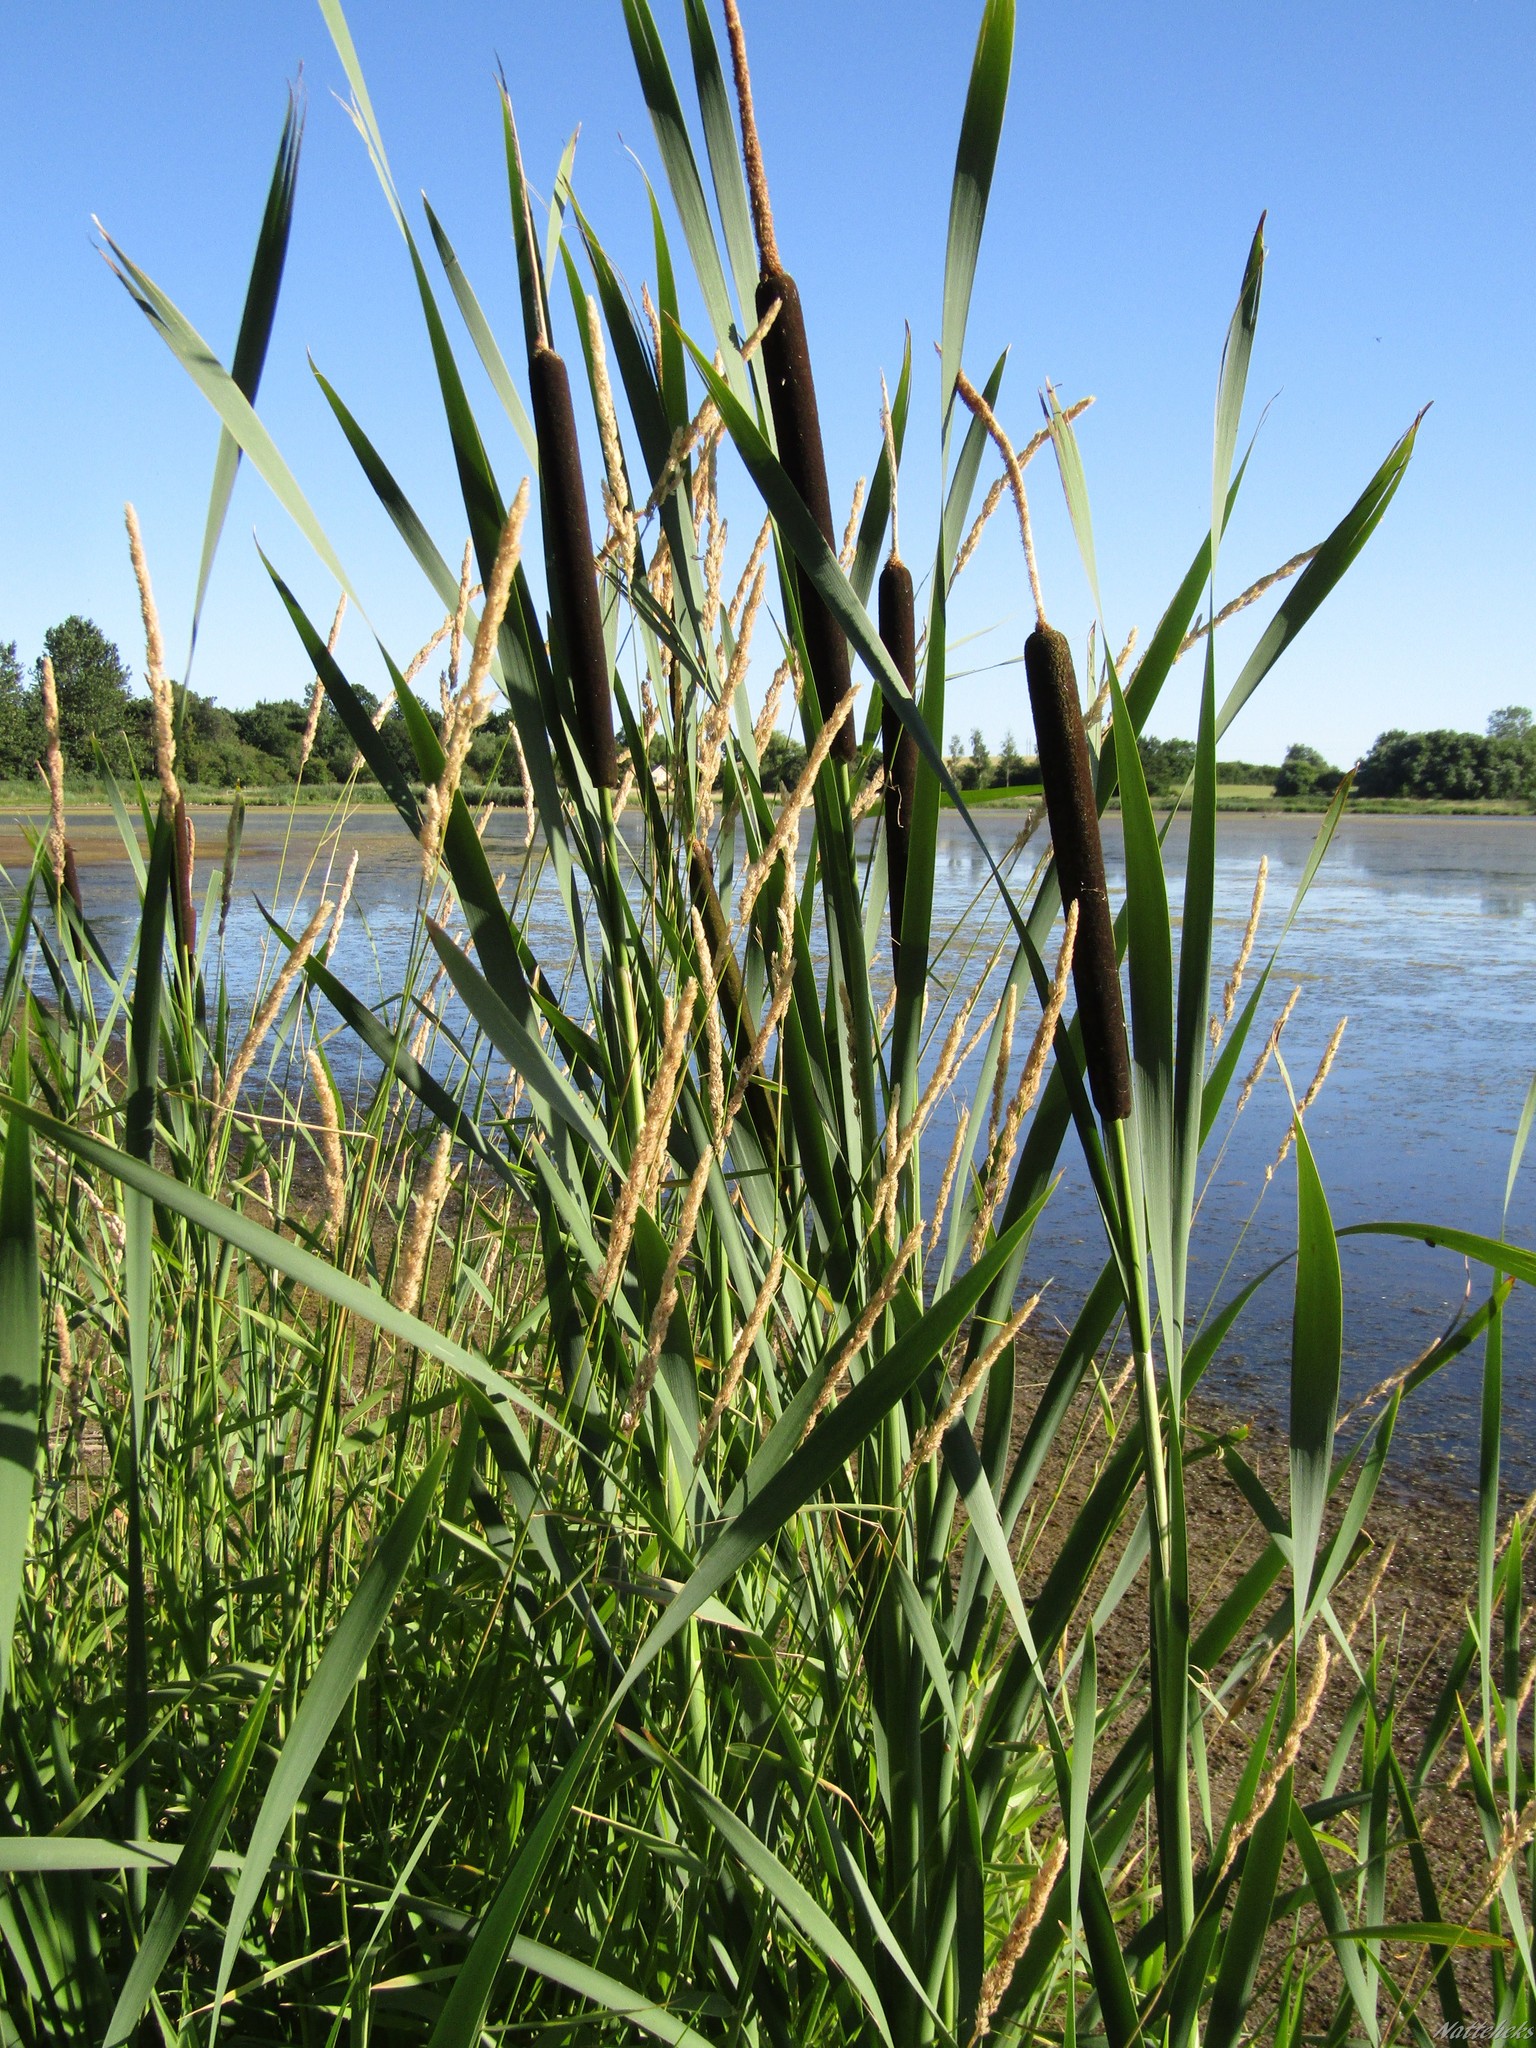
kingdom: Plantae
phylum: Tracheophyta
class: Liliopsida
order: Poales
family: Typhaceae
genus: Typha
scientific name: Typha latifolia
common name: Broadleaf cattail
